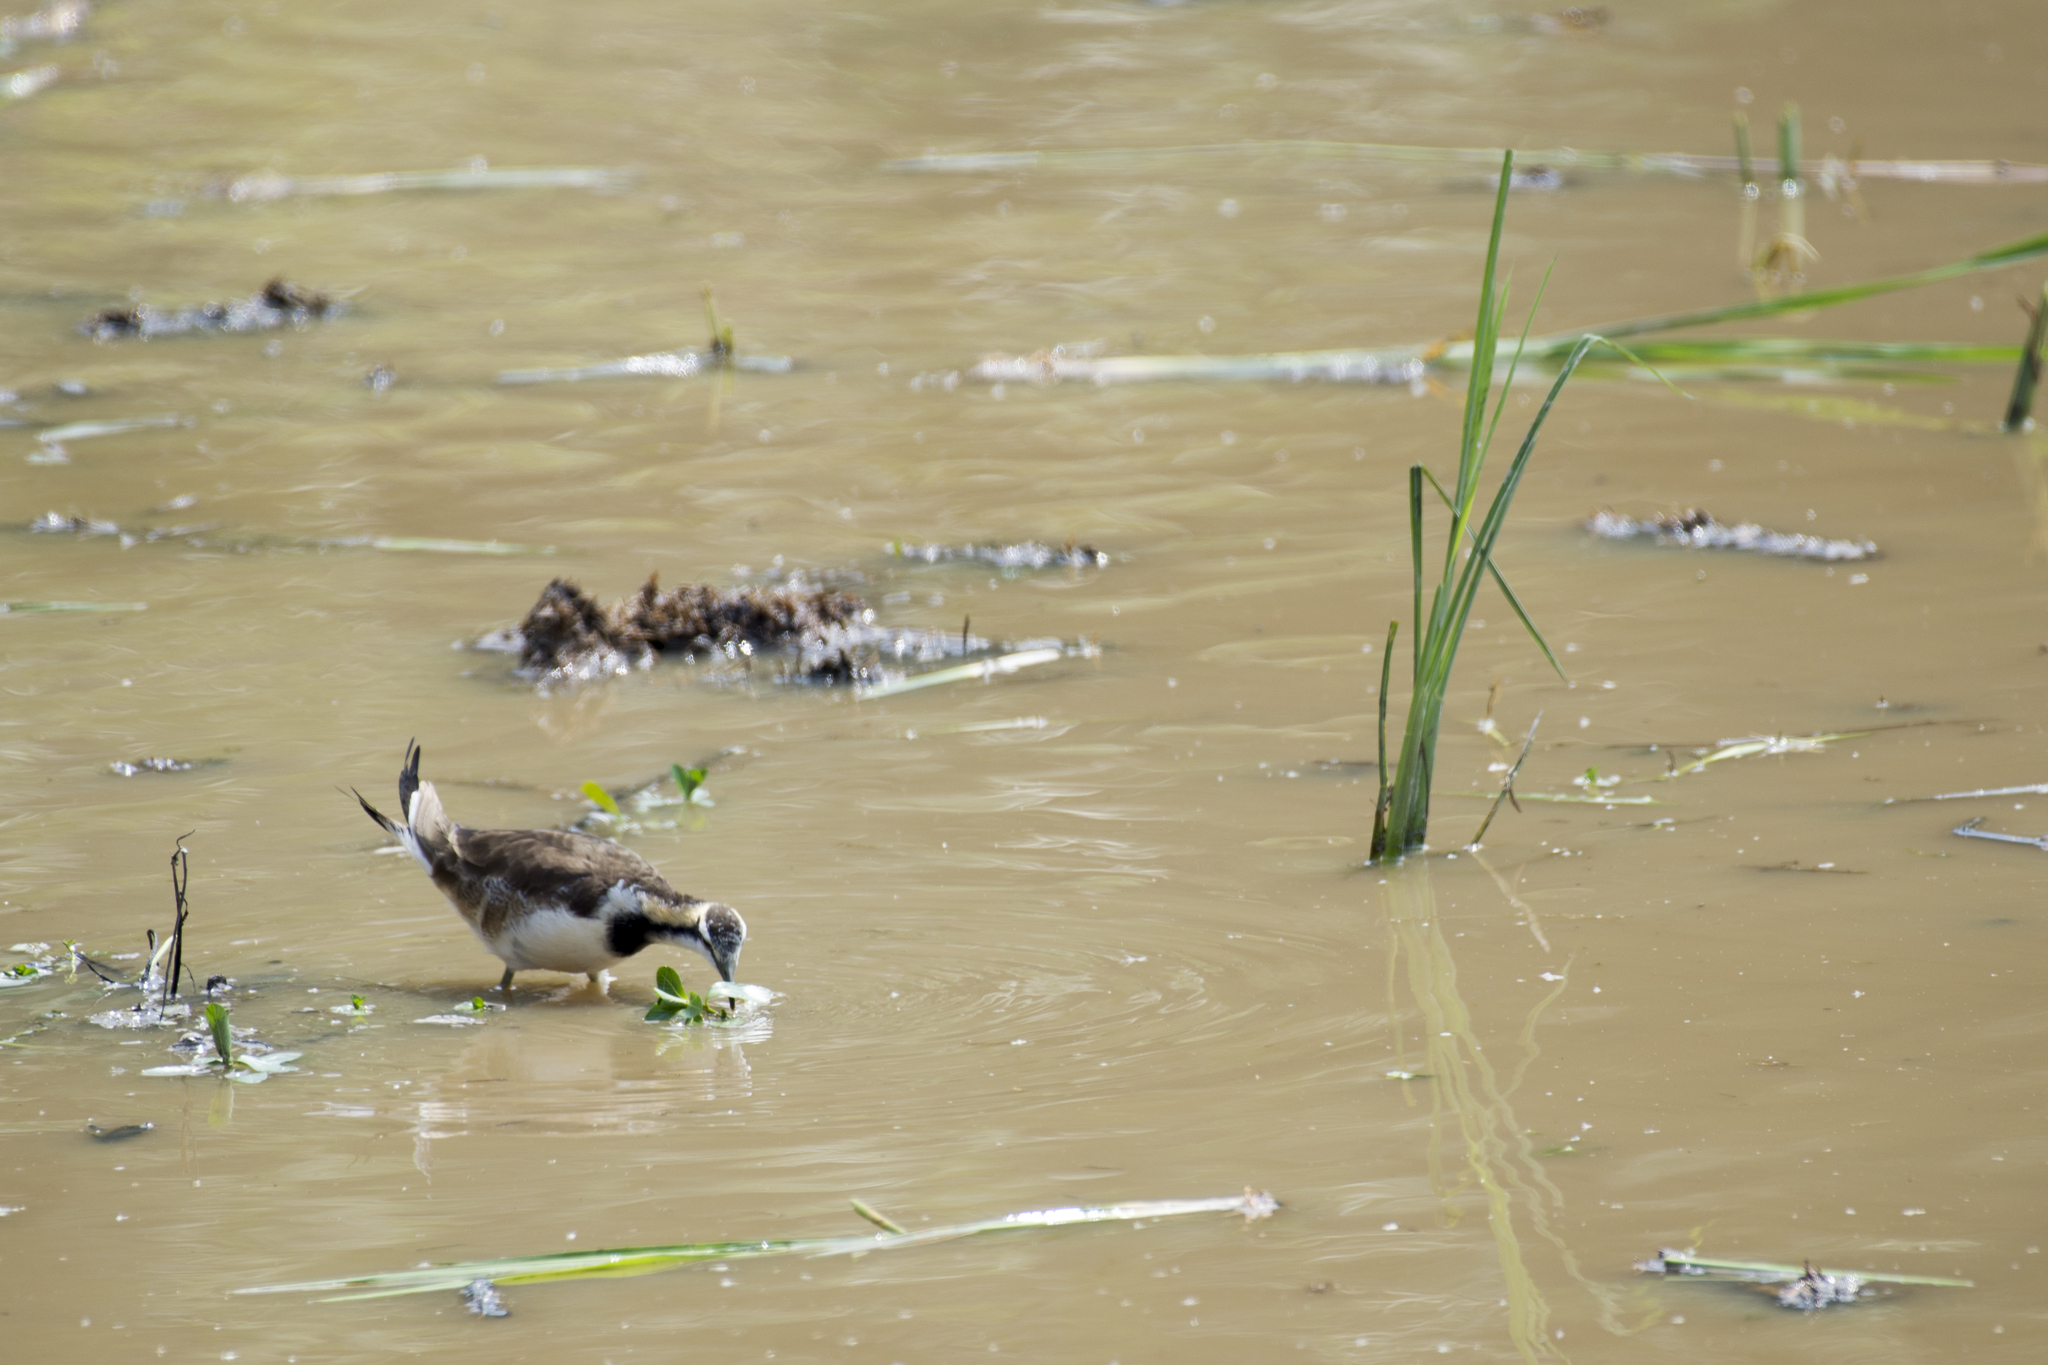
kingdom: Animalia
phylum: Chordata
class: Aves
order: Charadriiformes
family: Jacanidae
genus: Hydrophasianus
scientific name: Hydrophasianus chirurgus
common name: Pheasant-tailed jacana
